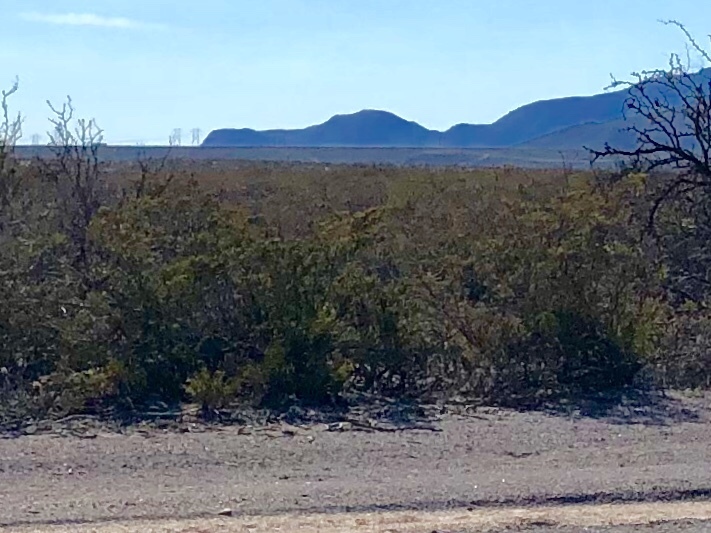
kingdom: Plantae
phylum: Tracheophyta
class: Magnoliopsida
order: Zygophyllales
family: Zygophyllaceae
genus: Larrea
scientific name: Larrea tridentata
